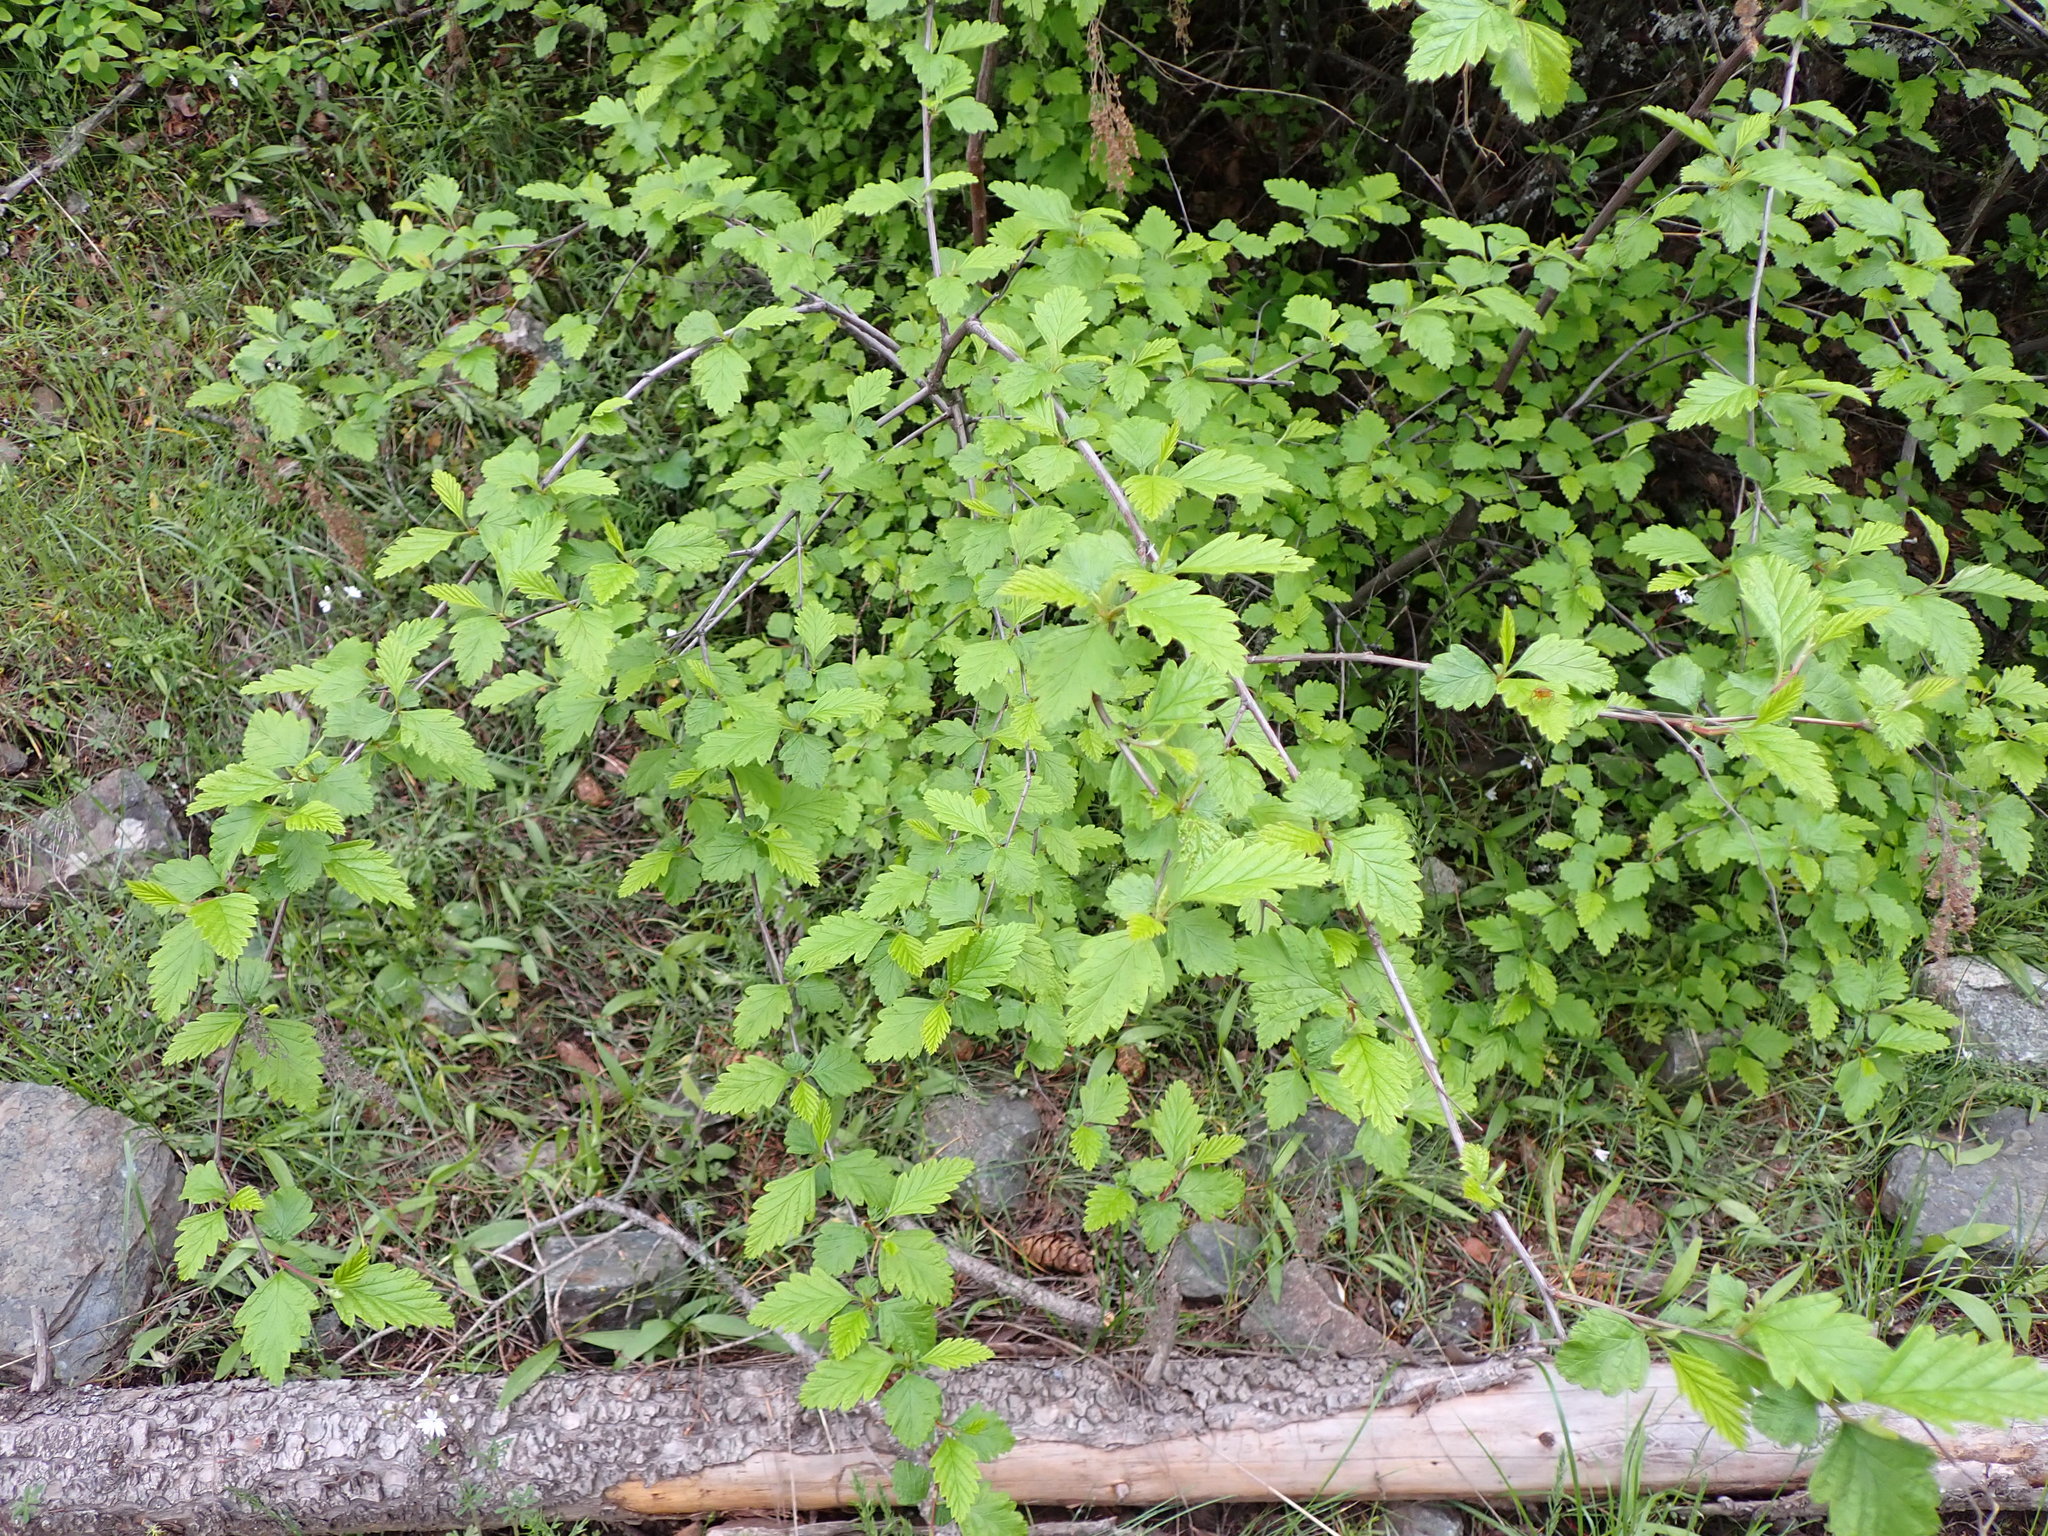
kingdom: Plantae
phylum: Tracheophyta
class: Magnoliopsida
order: Rosales
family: Rosaceae
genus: Holodiscus
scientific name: Holodiscus discolor
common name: Oceanspray
